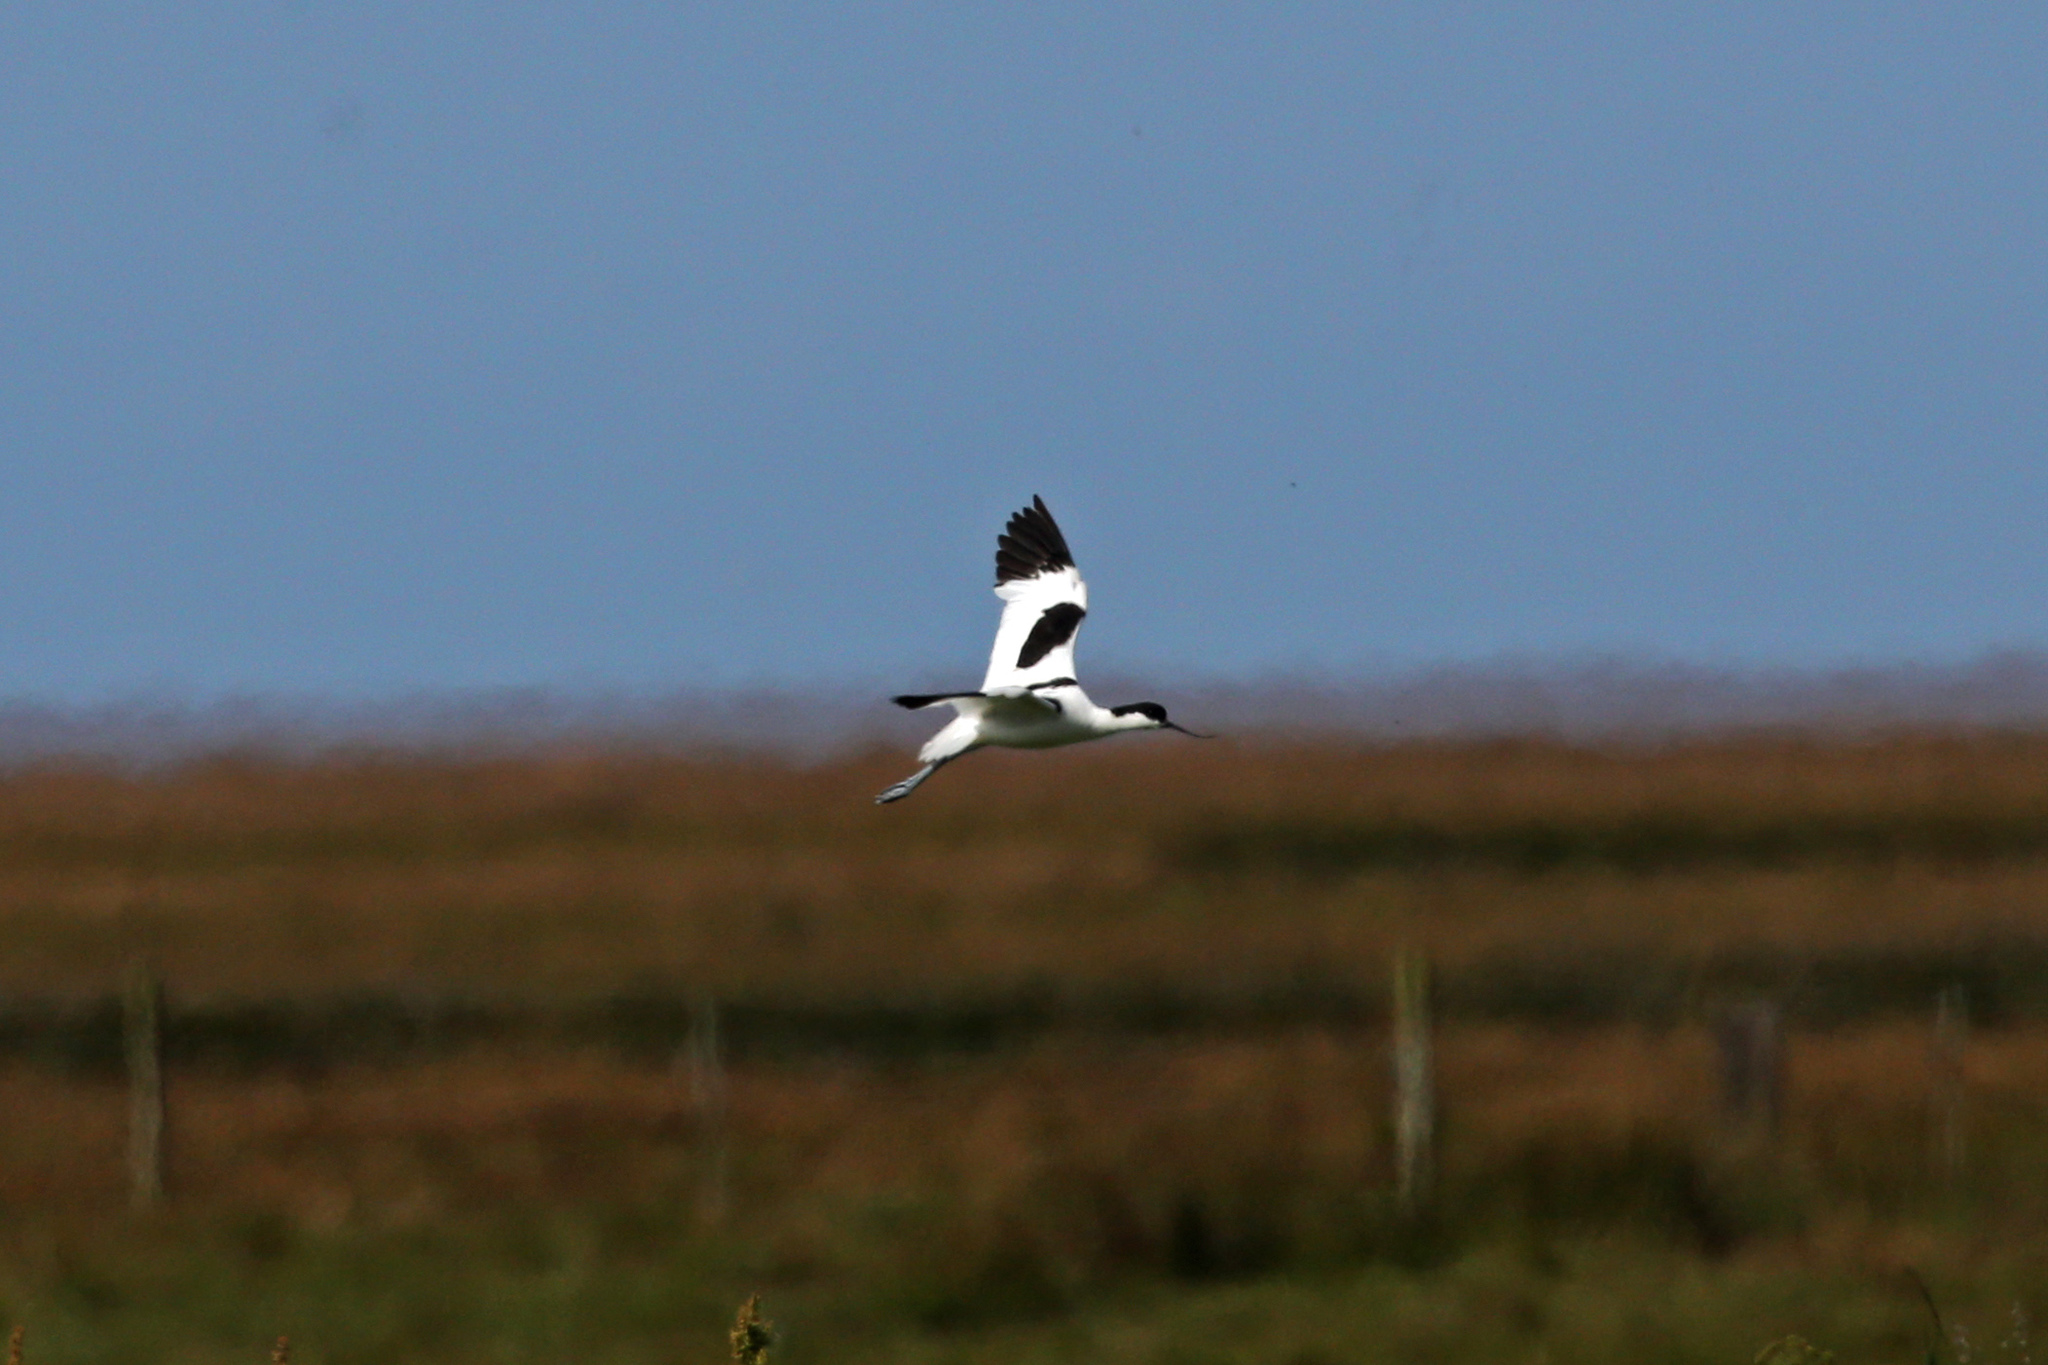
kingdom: Animalia
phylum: Chordata
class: Aves
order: Charadriiformes
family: Recurvirostridae
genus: Recurvirostra
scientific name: Recurvirostra avosetta
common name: Pied avocet
